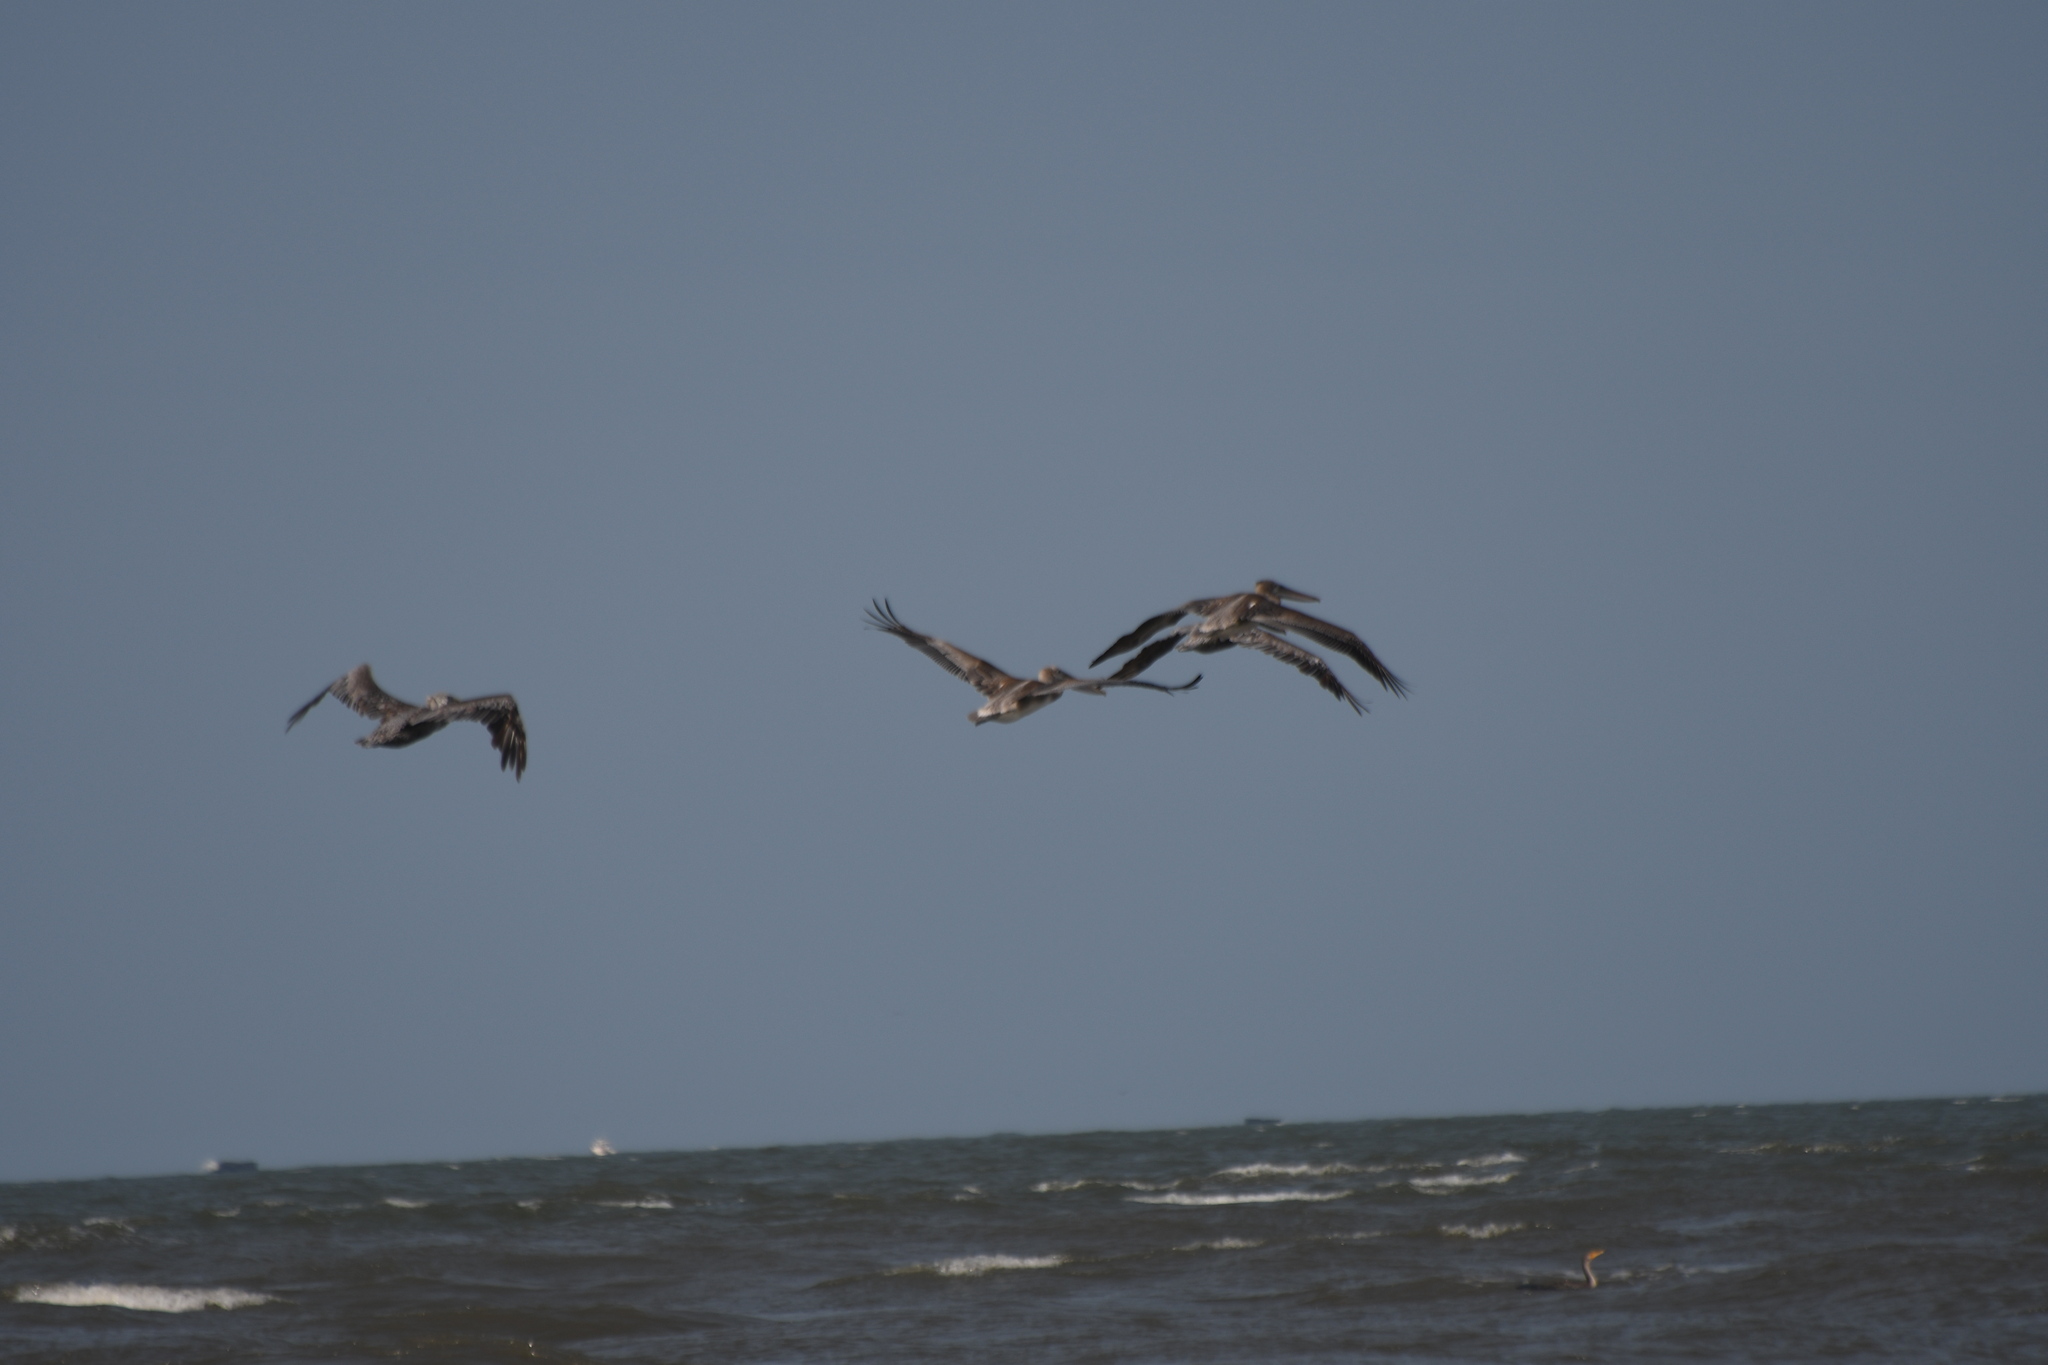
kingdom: Animalia
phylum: Chordata
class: Aves
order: Pelecaniformes
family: Pelecanidae
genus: Pelecanus
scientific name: Pelecanus occidentalis
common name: Brown pelican
